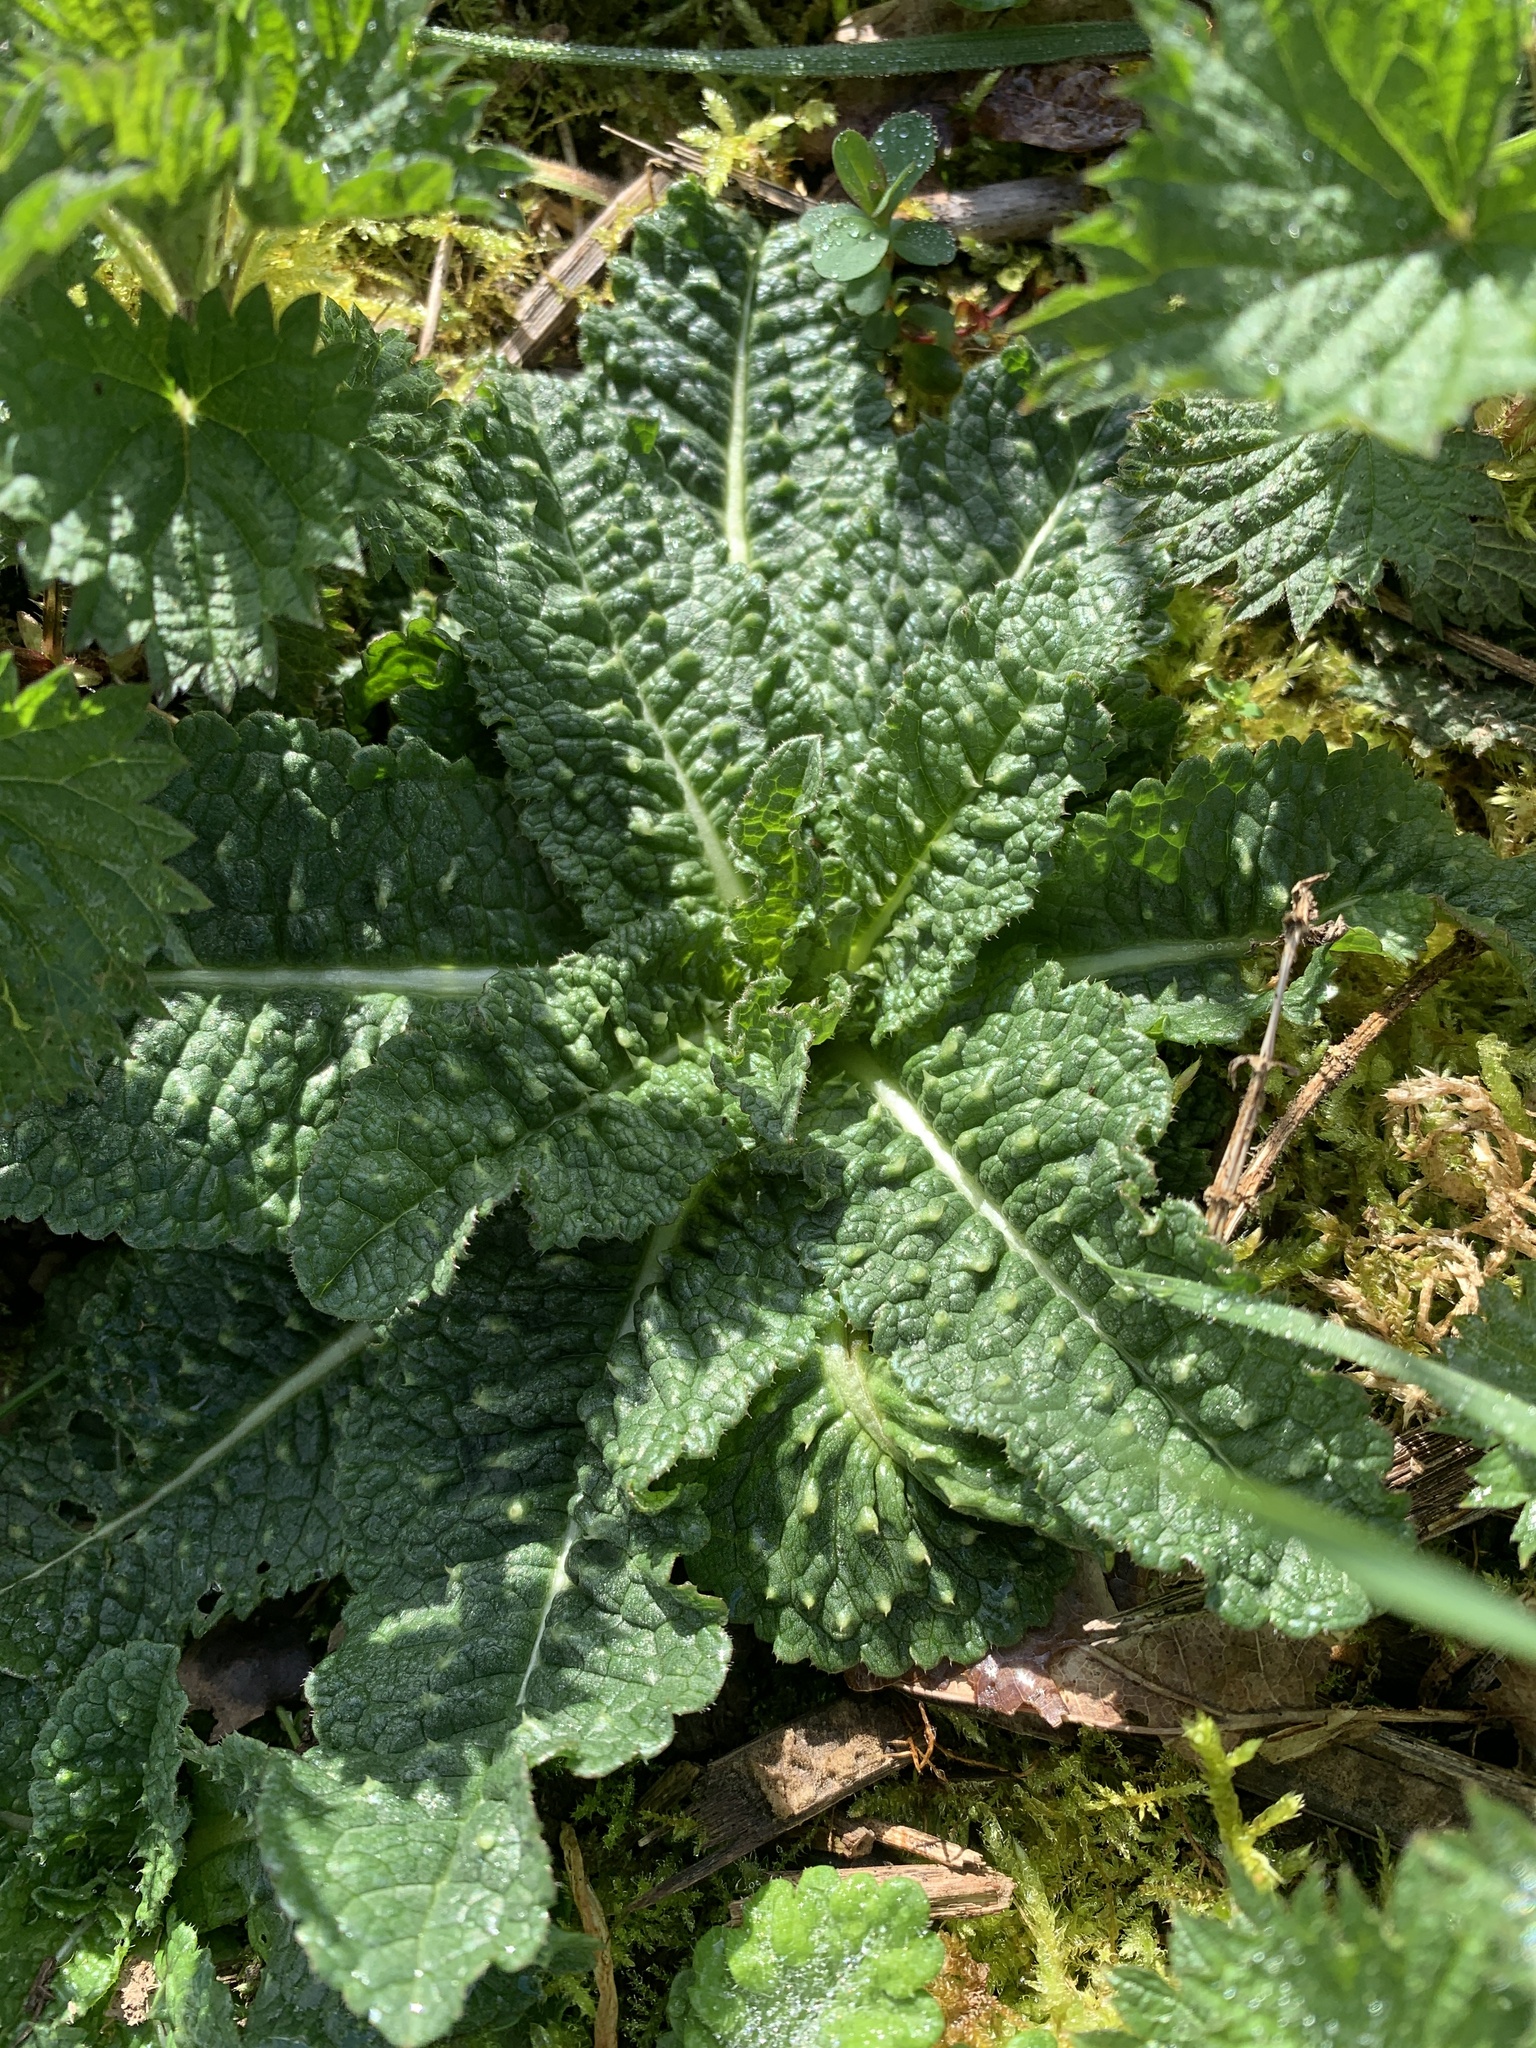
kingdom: Plantae
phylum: Tracheophyta
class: Magnoliopsida
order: Dipsacales
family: Caprifoliaceae
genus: Dipsacus
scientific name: Dipsacus fullonum
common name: Teasel
